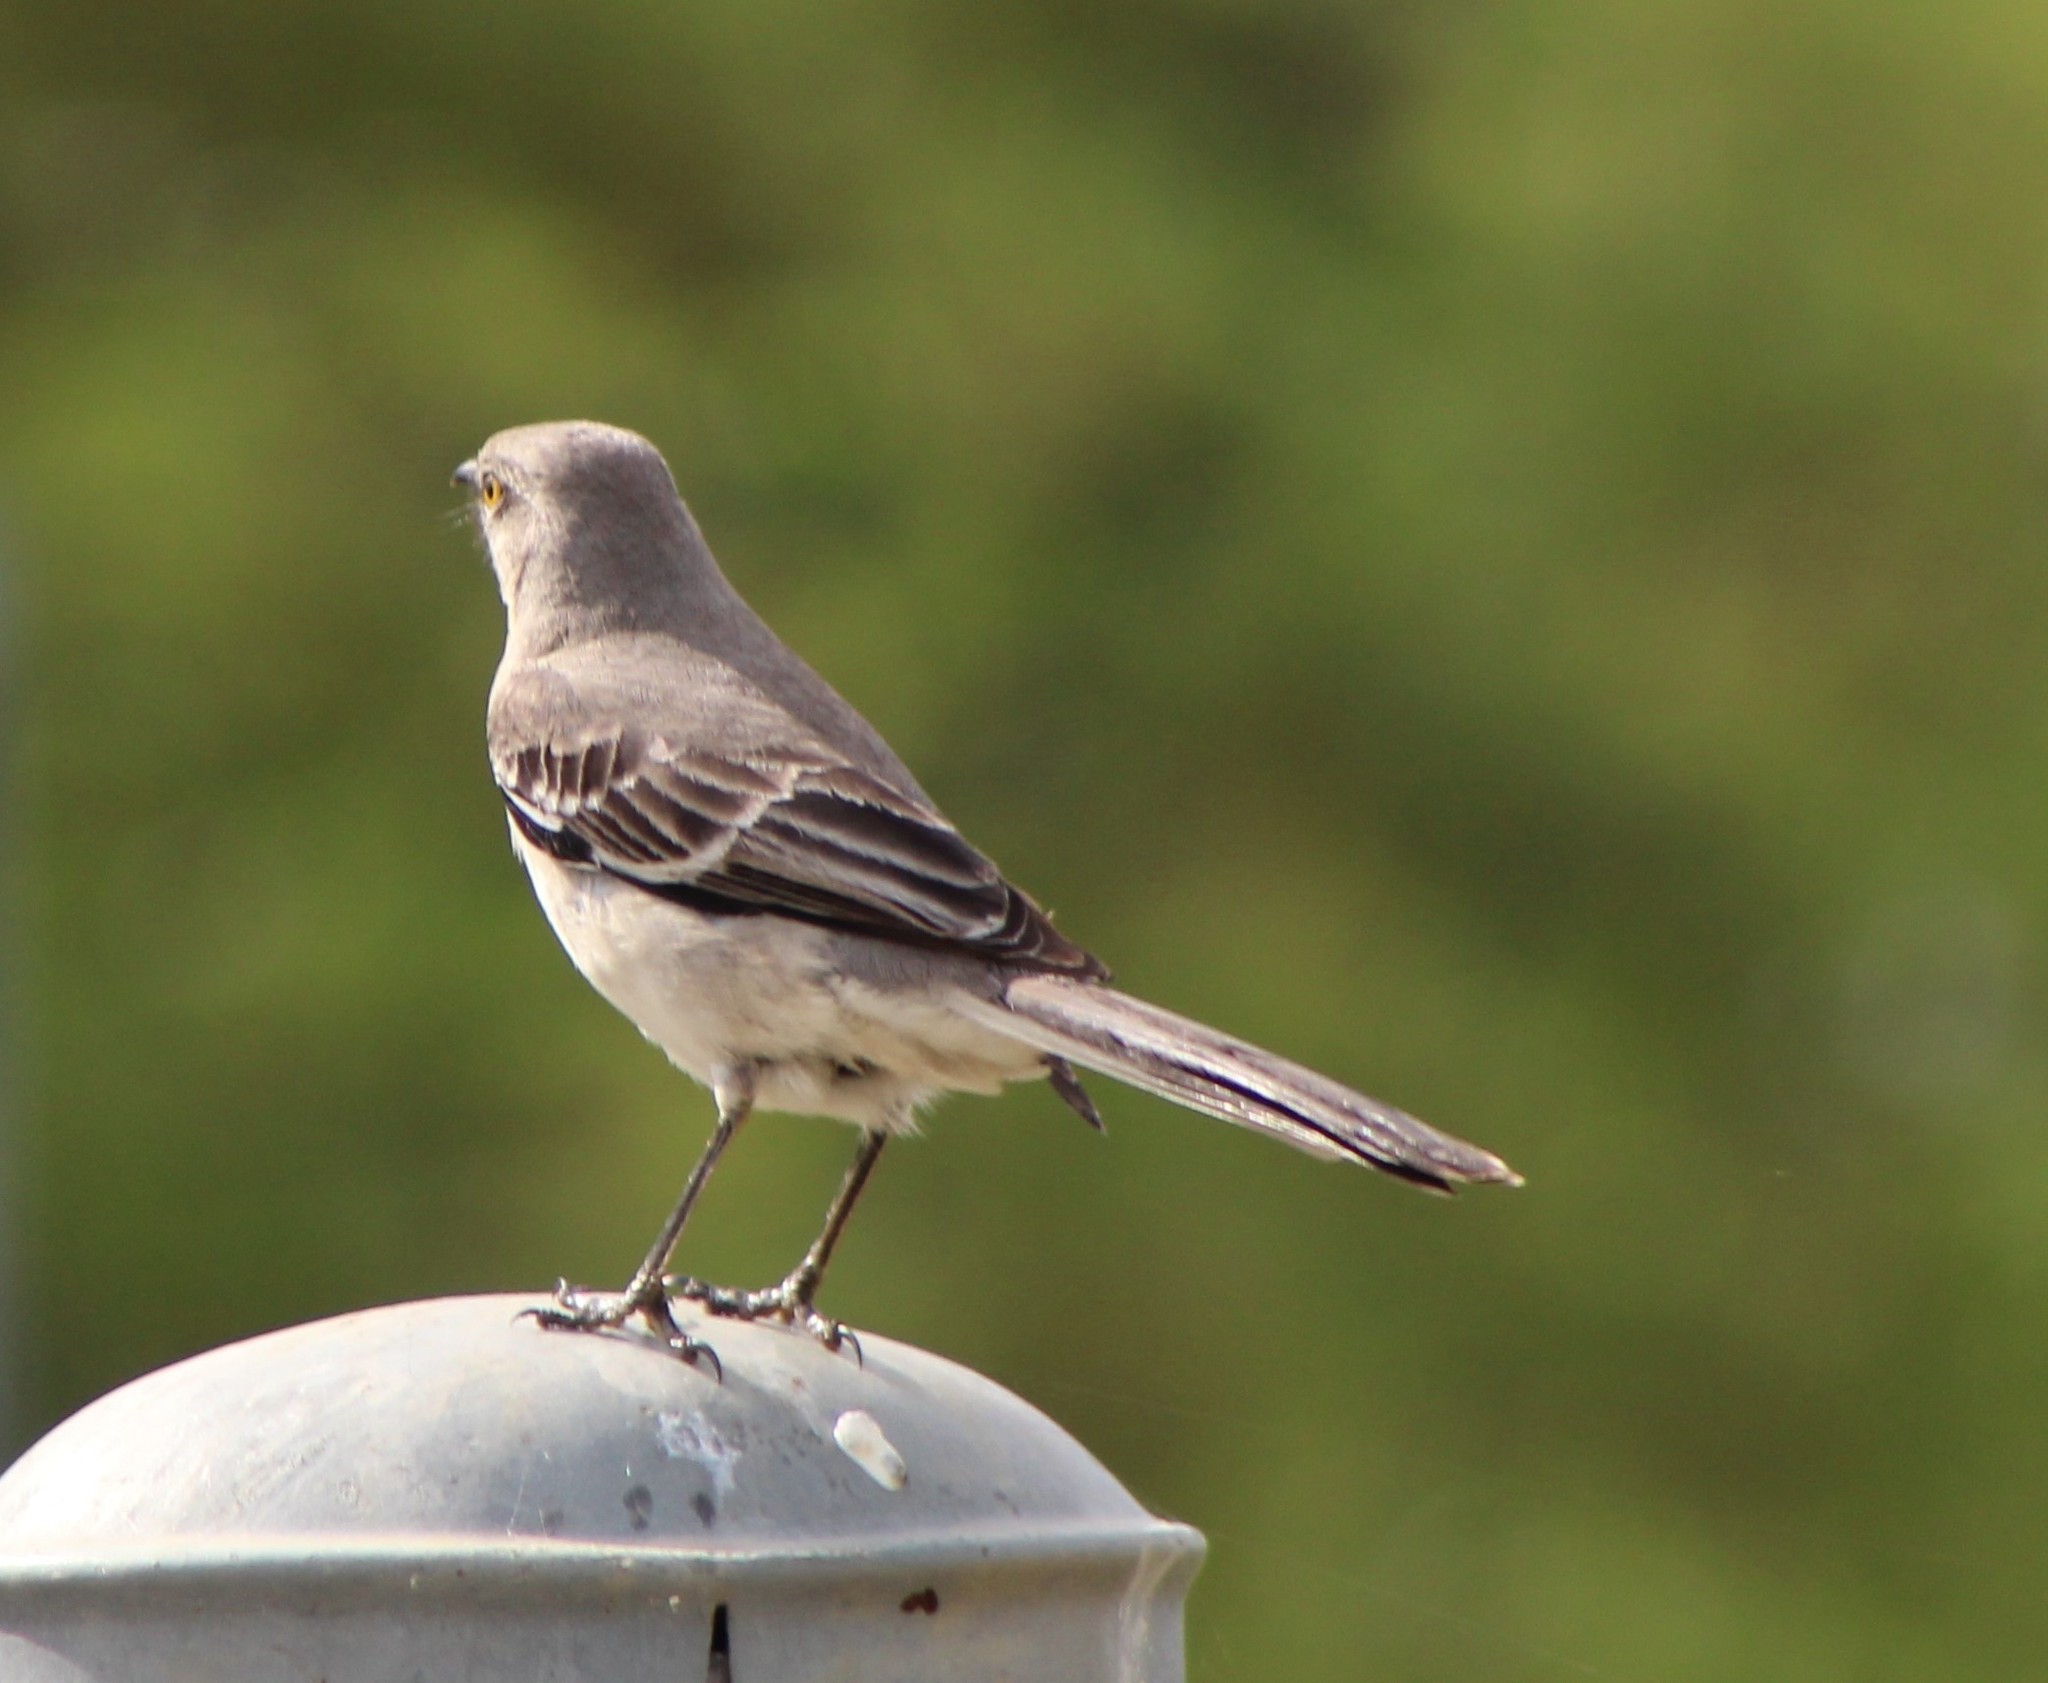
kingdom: Animalia
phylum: Chordata
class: Aves
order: Passeriformes
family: Mimidae
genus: Mimus
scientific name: Mimus polyglottos
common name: Northern mockingbird
